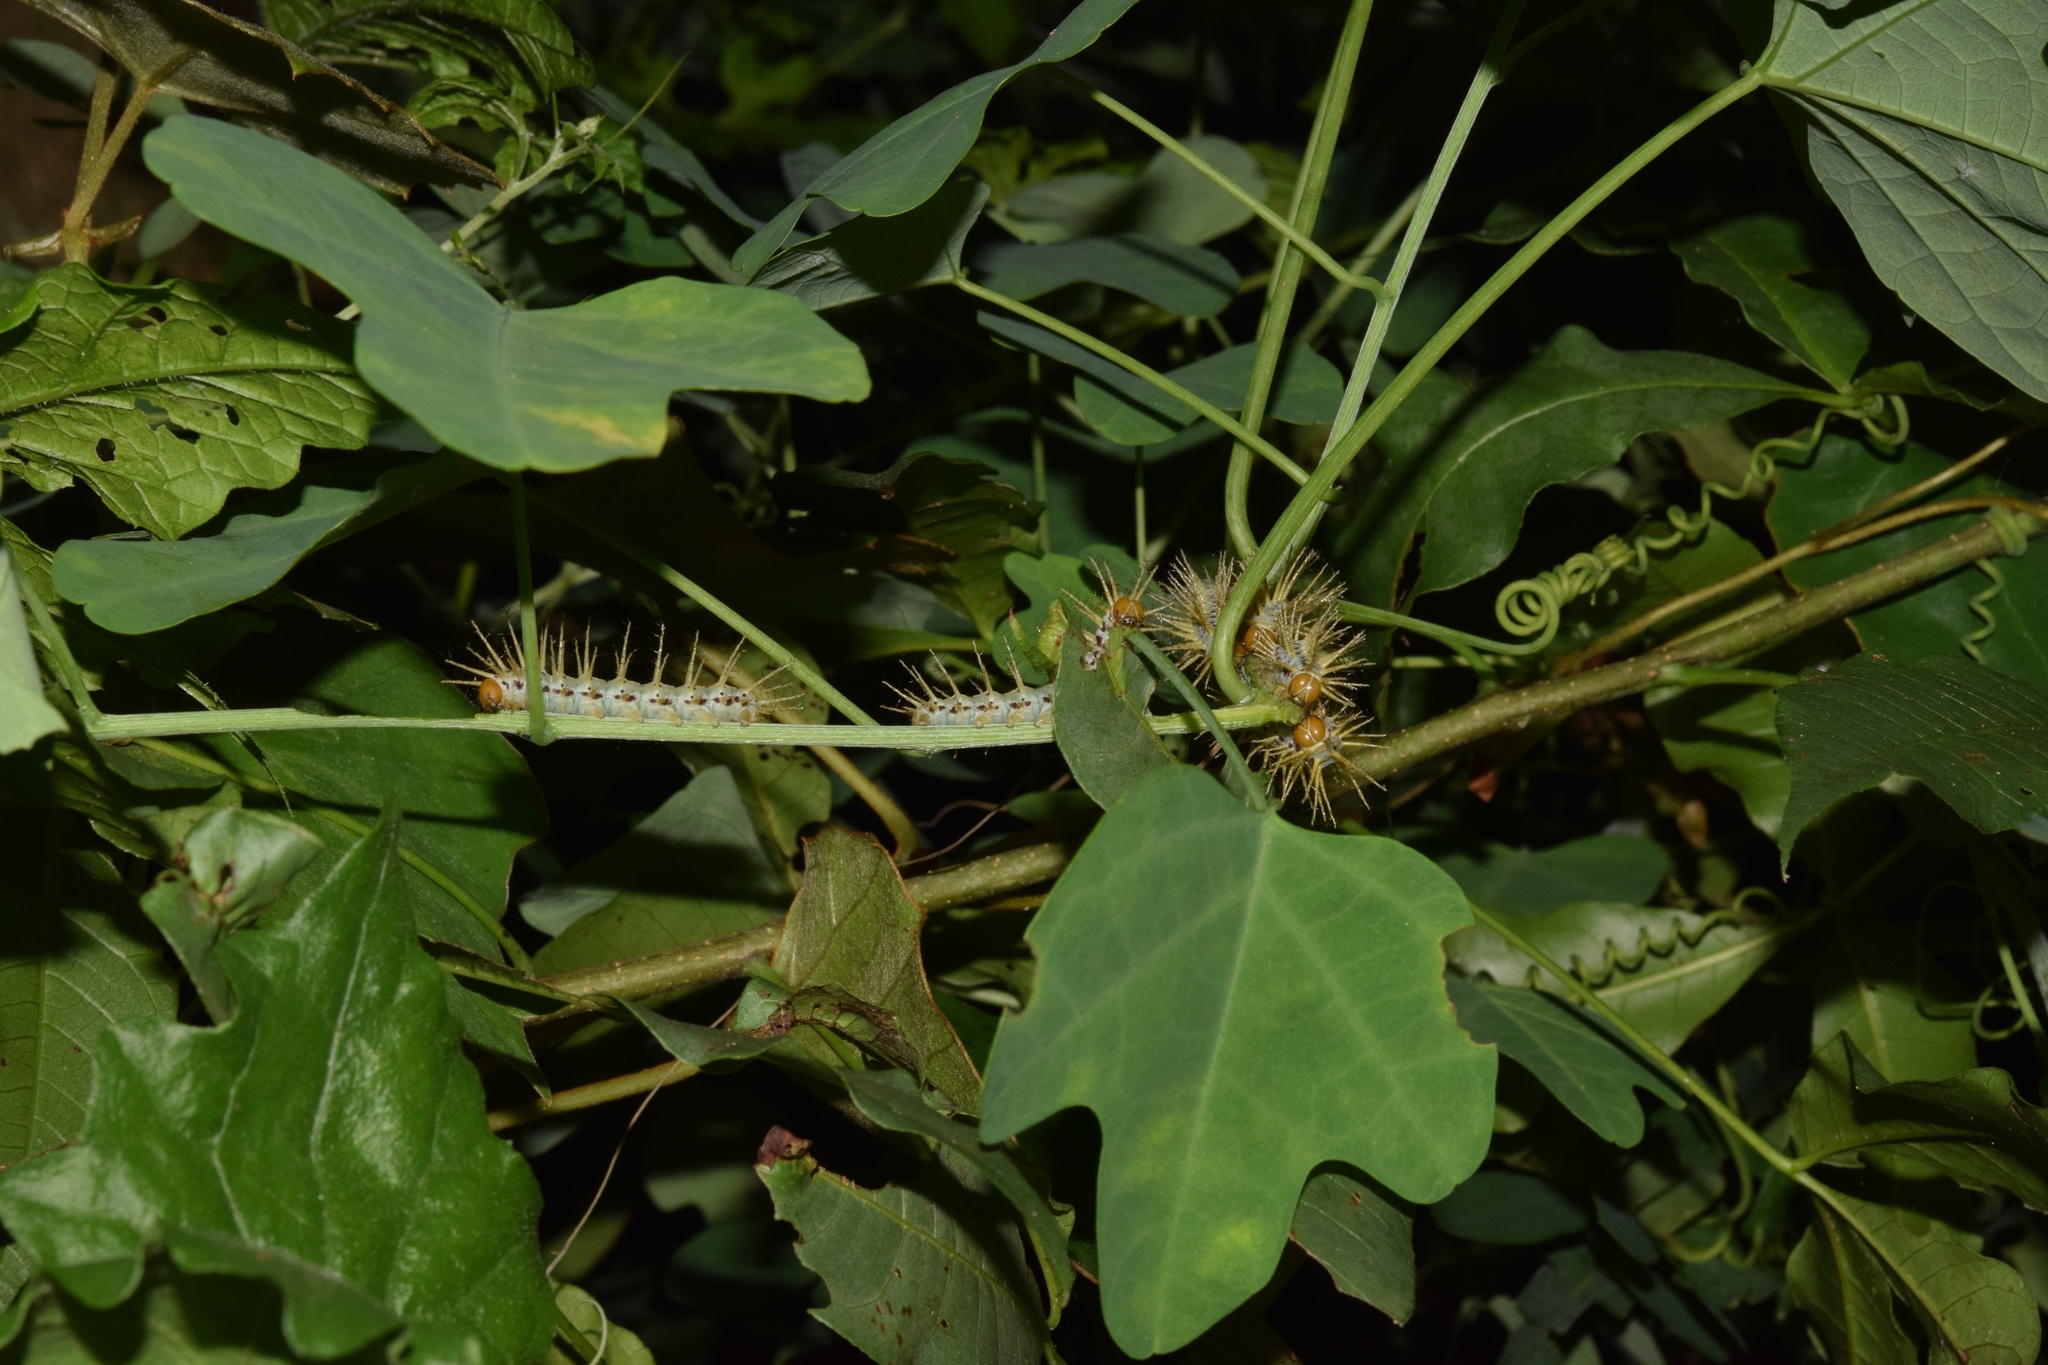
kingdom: Animalia
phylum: Arthropoda
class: Insecta
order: Lepidoptera
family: Nymphalidae
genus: Acraea
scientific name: Acraea Bematistes aganice
